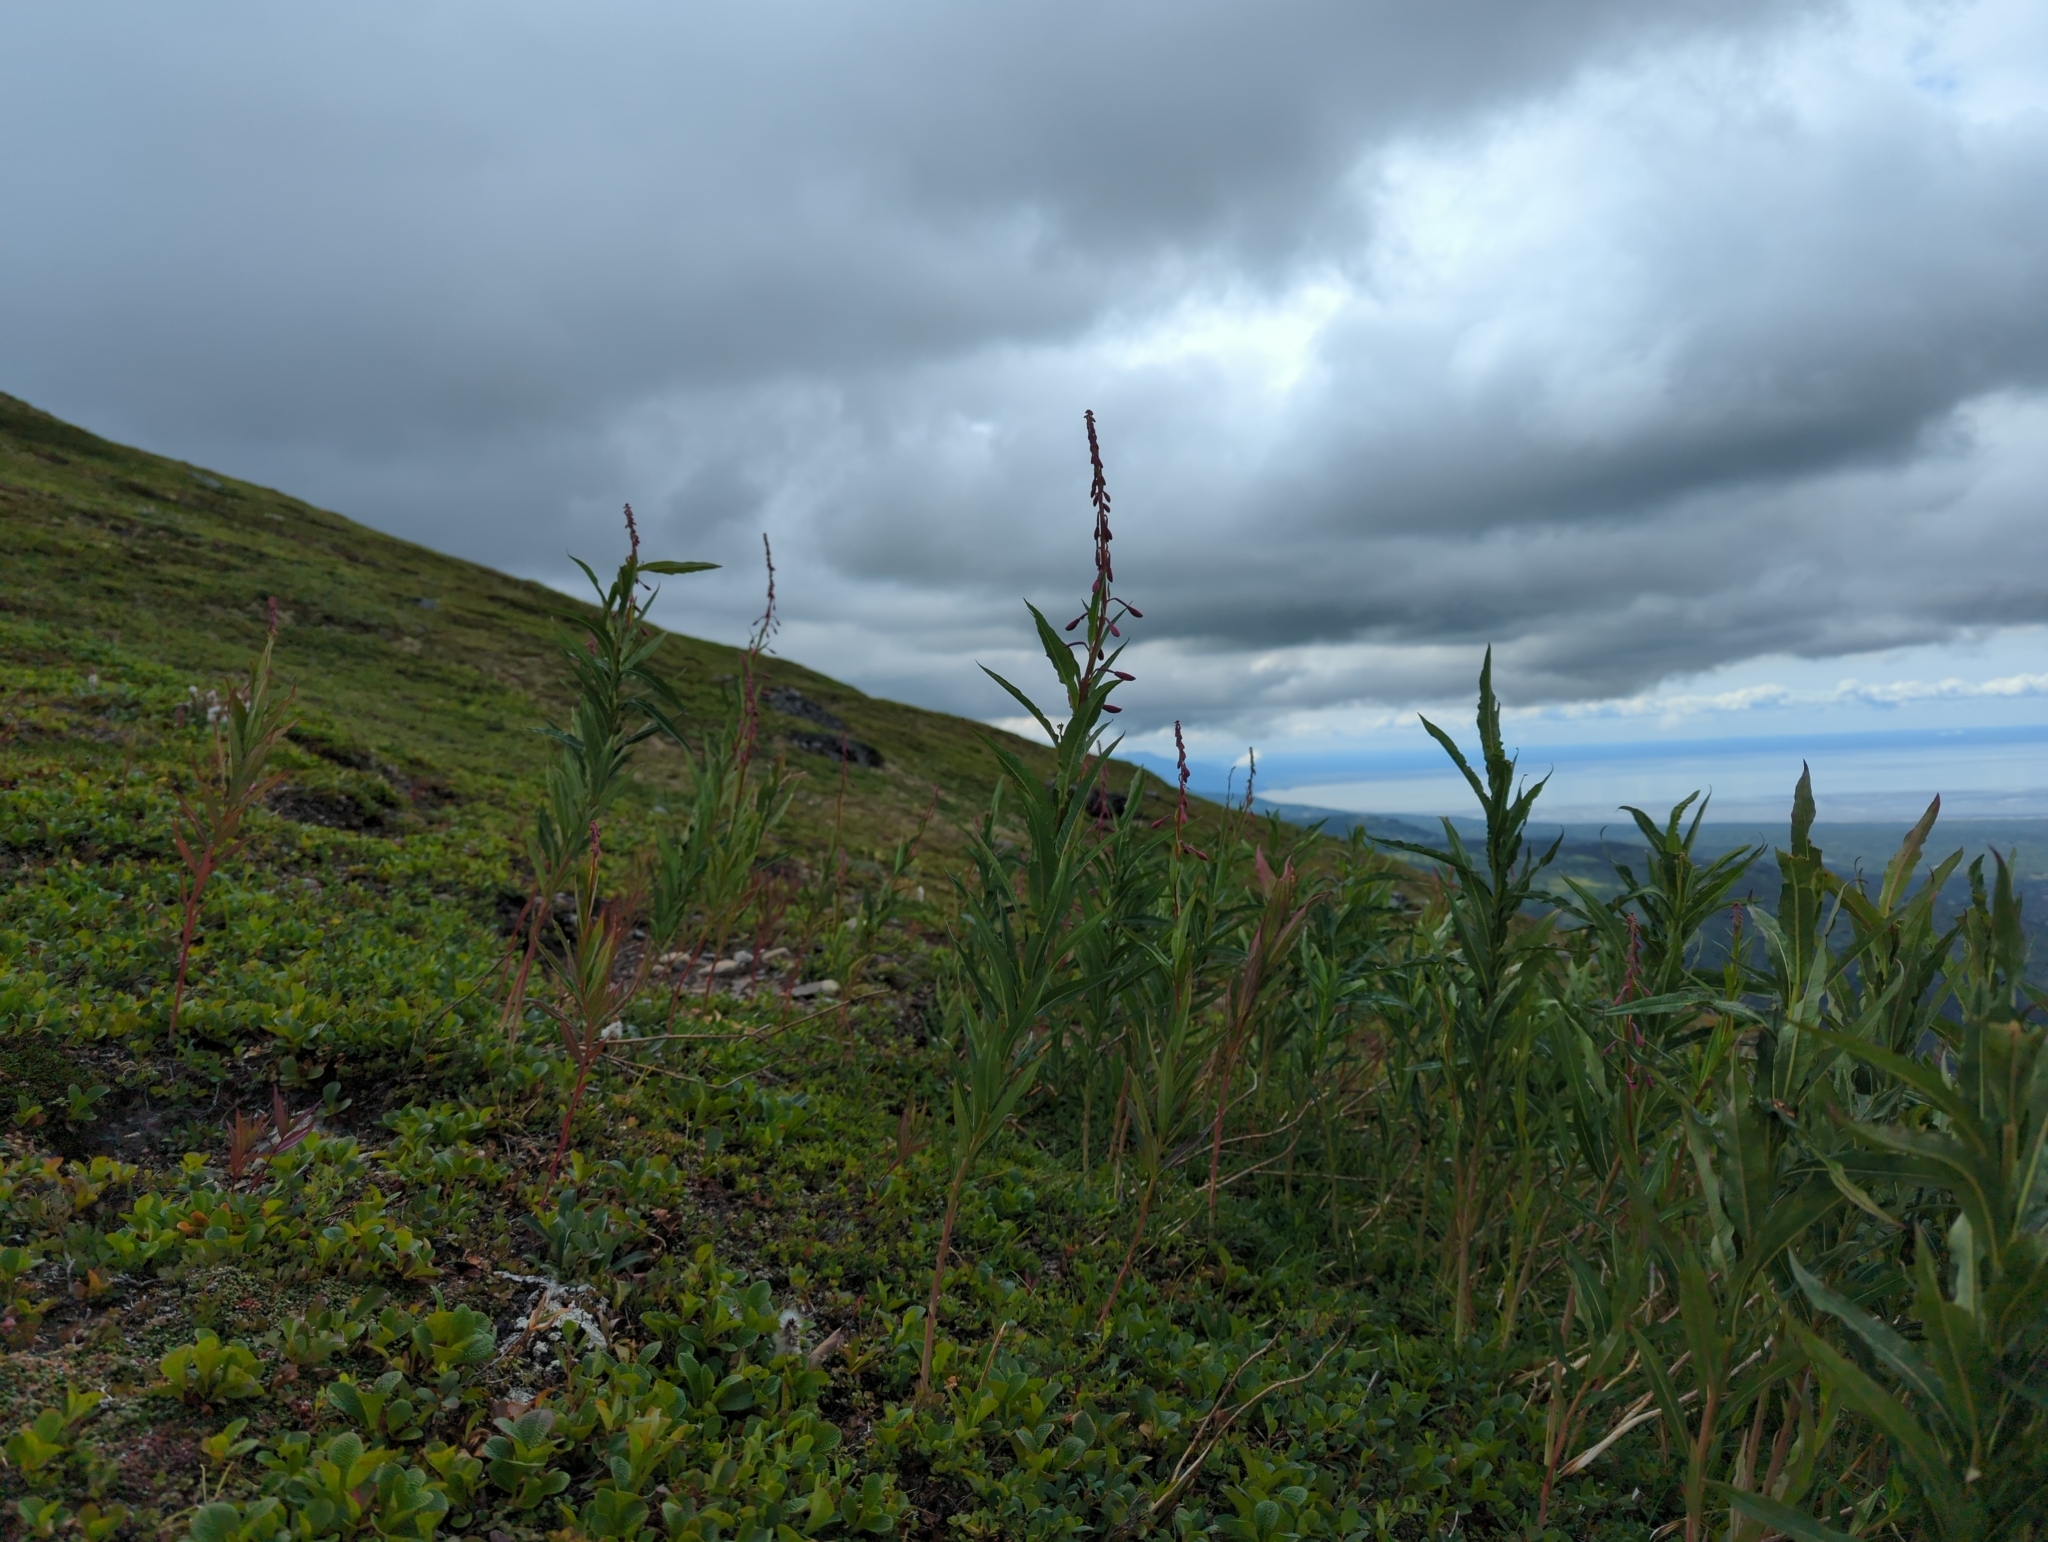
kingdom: Plantae
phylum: Tracheophyta
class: Magnoliopsida
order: Myrtales
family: Onagraceae
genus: Chamaenerion
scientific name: Chamaenerion angustifolium
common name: Fireweed
